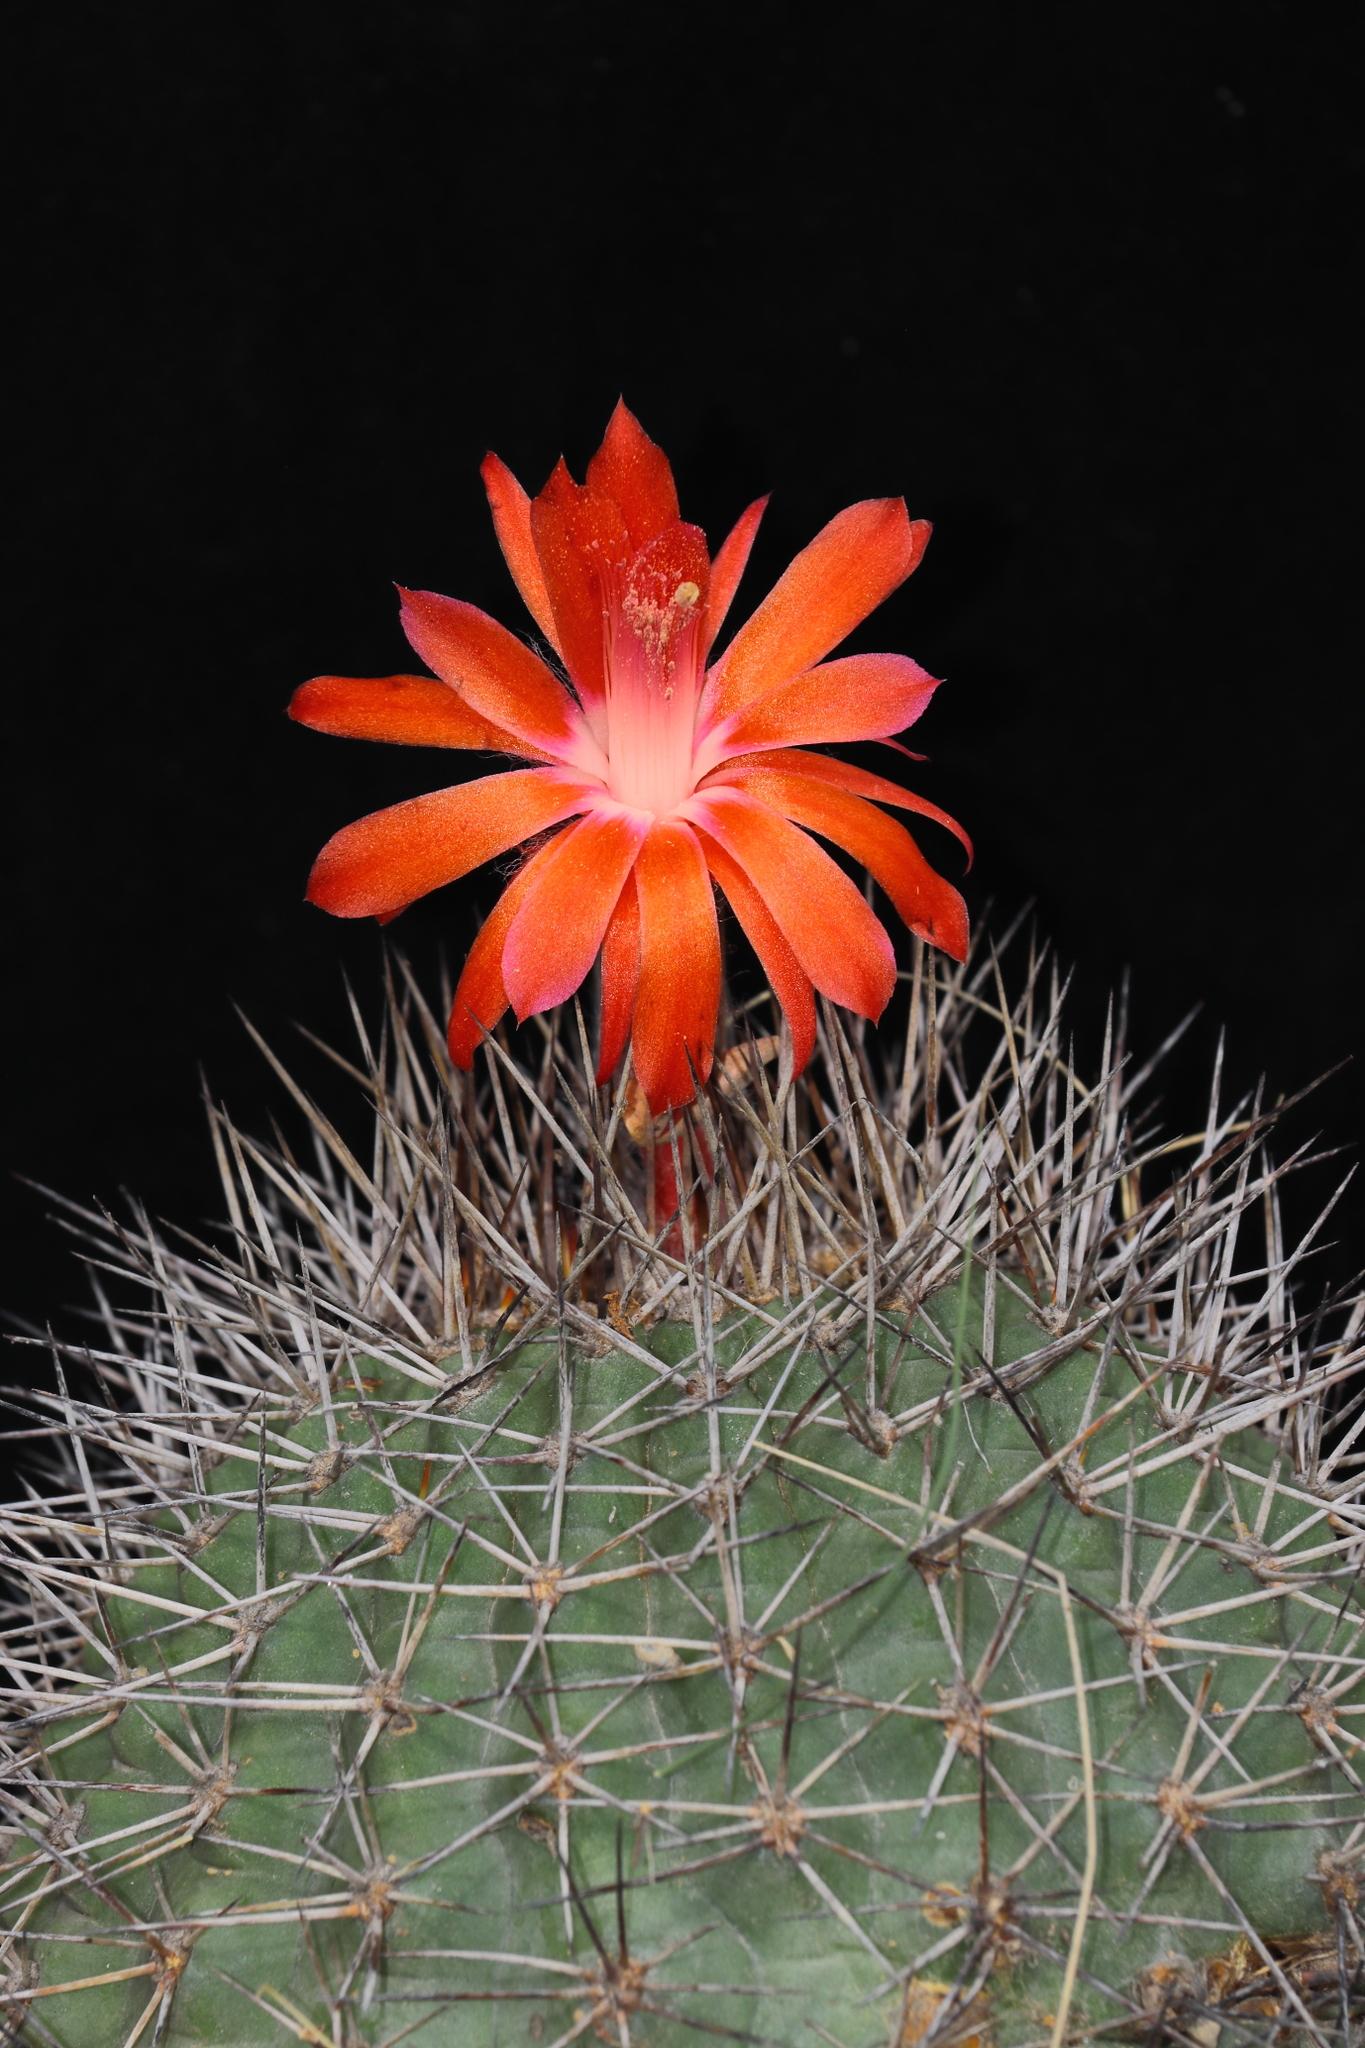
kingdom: Plantae
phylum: Tracheophyta
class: Magnoliopsida
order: Caryophyllales
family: Cactaceae
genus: Matucana
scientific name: Matucana formosa
